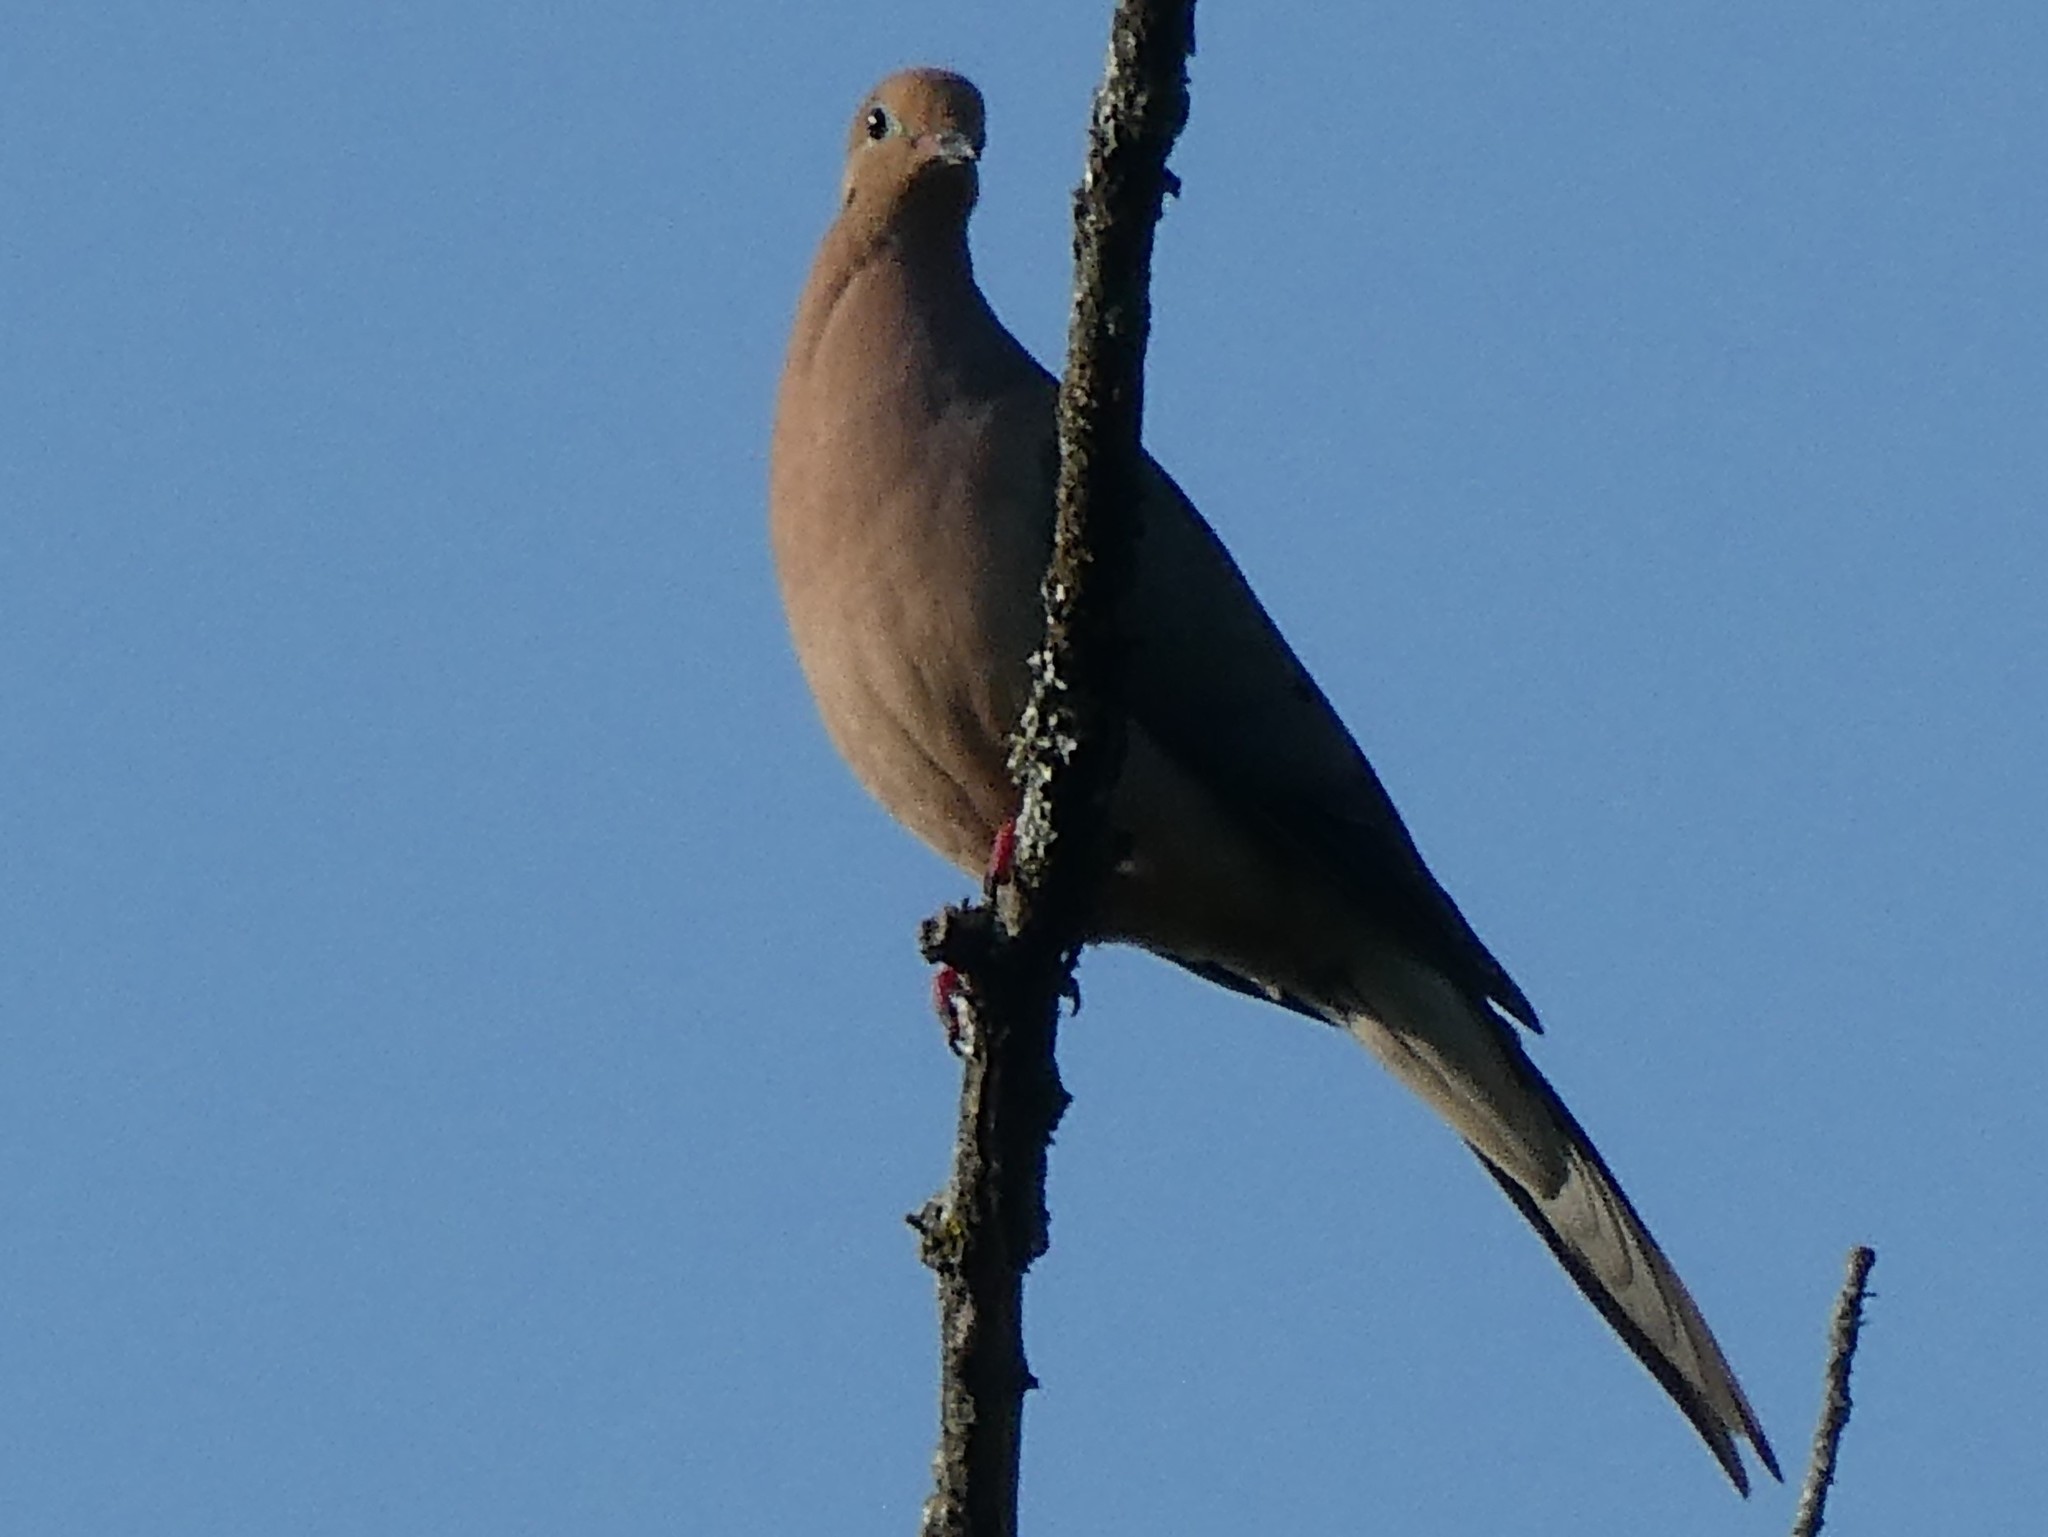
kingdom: Animalia
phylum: Chordata
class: Aves
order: Columbiformes
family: Columbidae
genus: Zenaida
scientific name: Zenaida macroura
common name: Mourning dove
